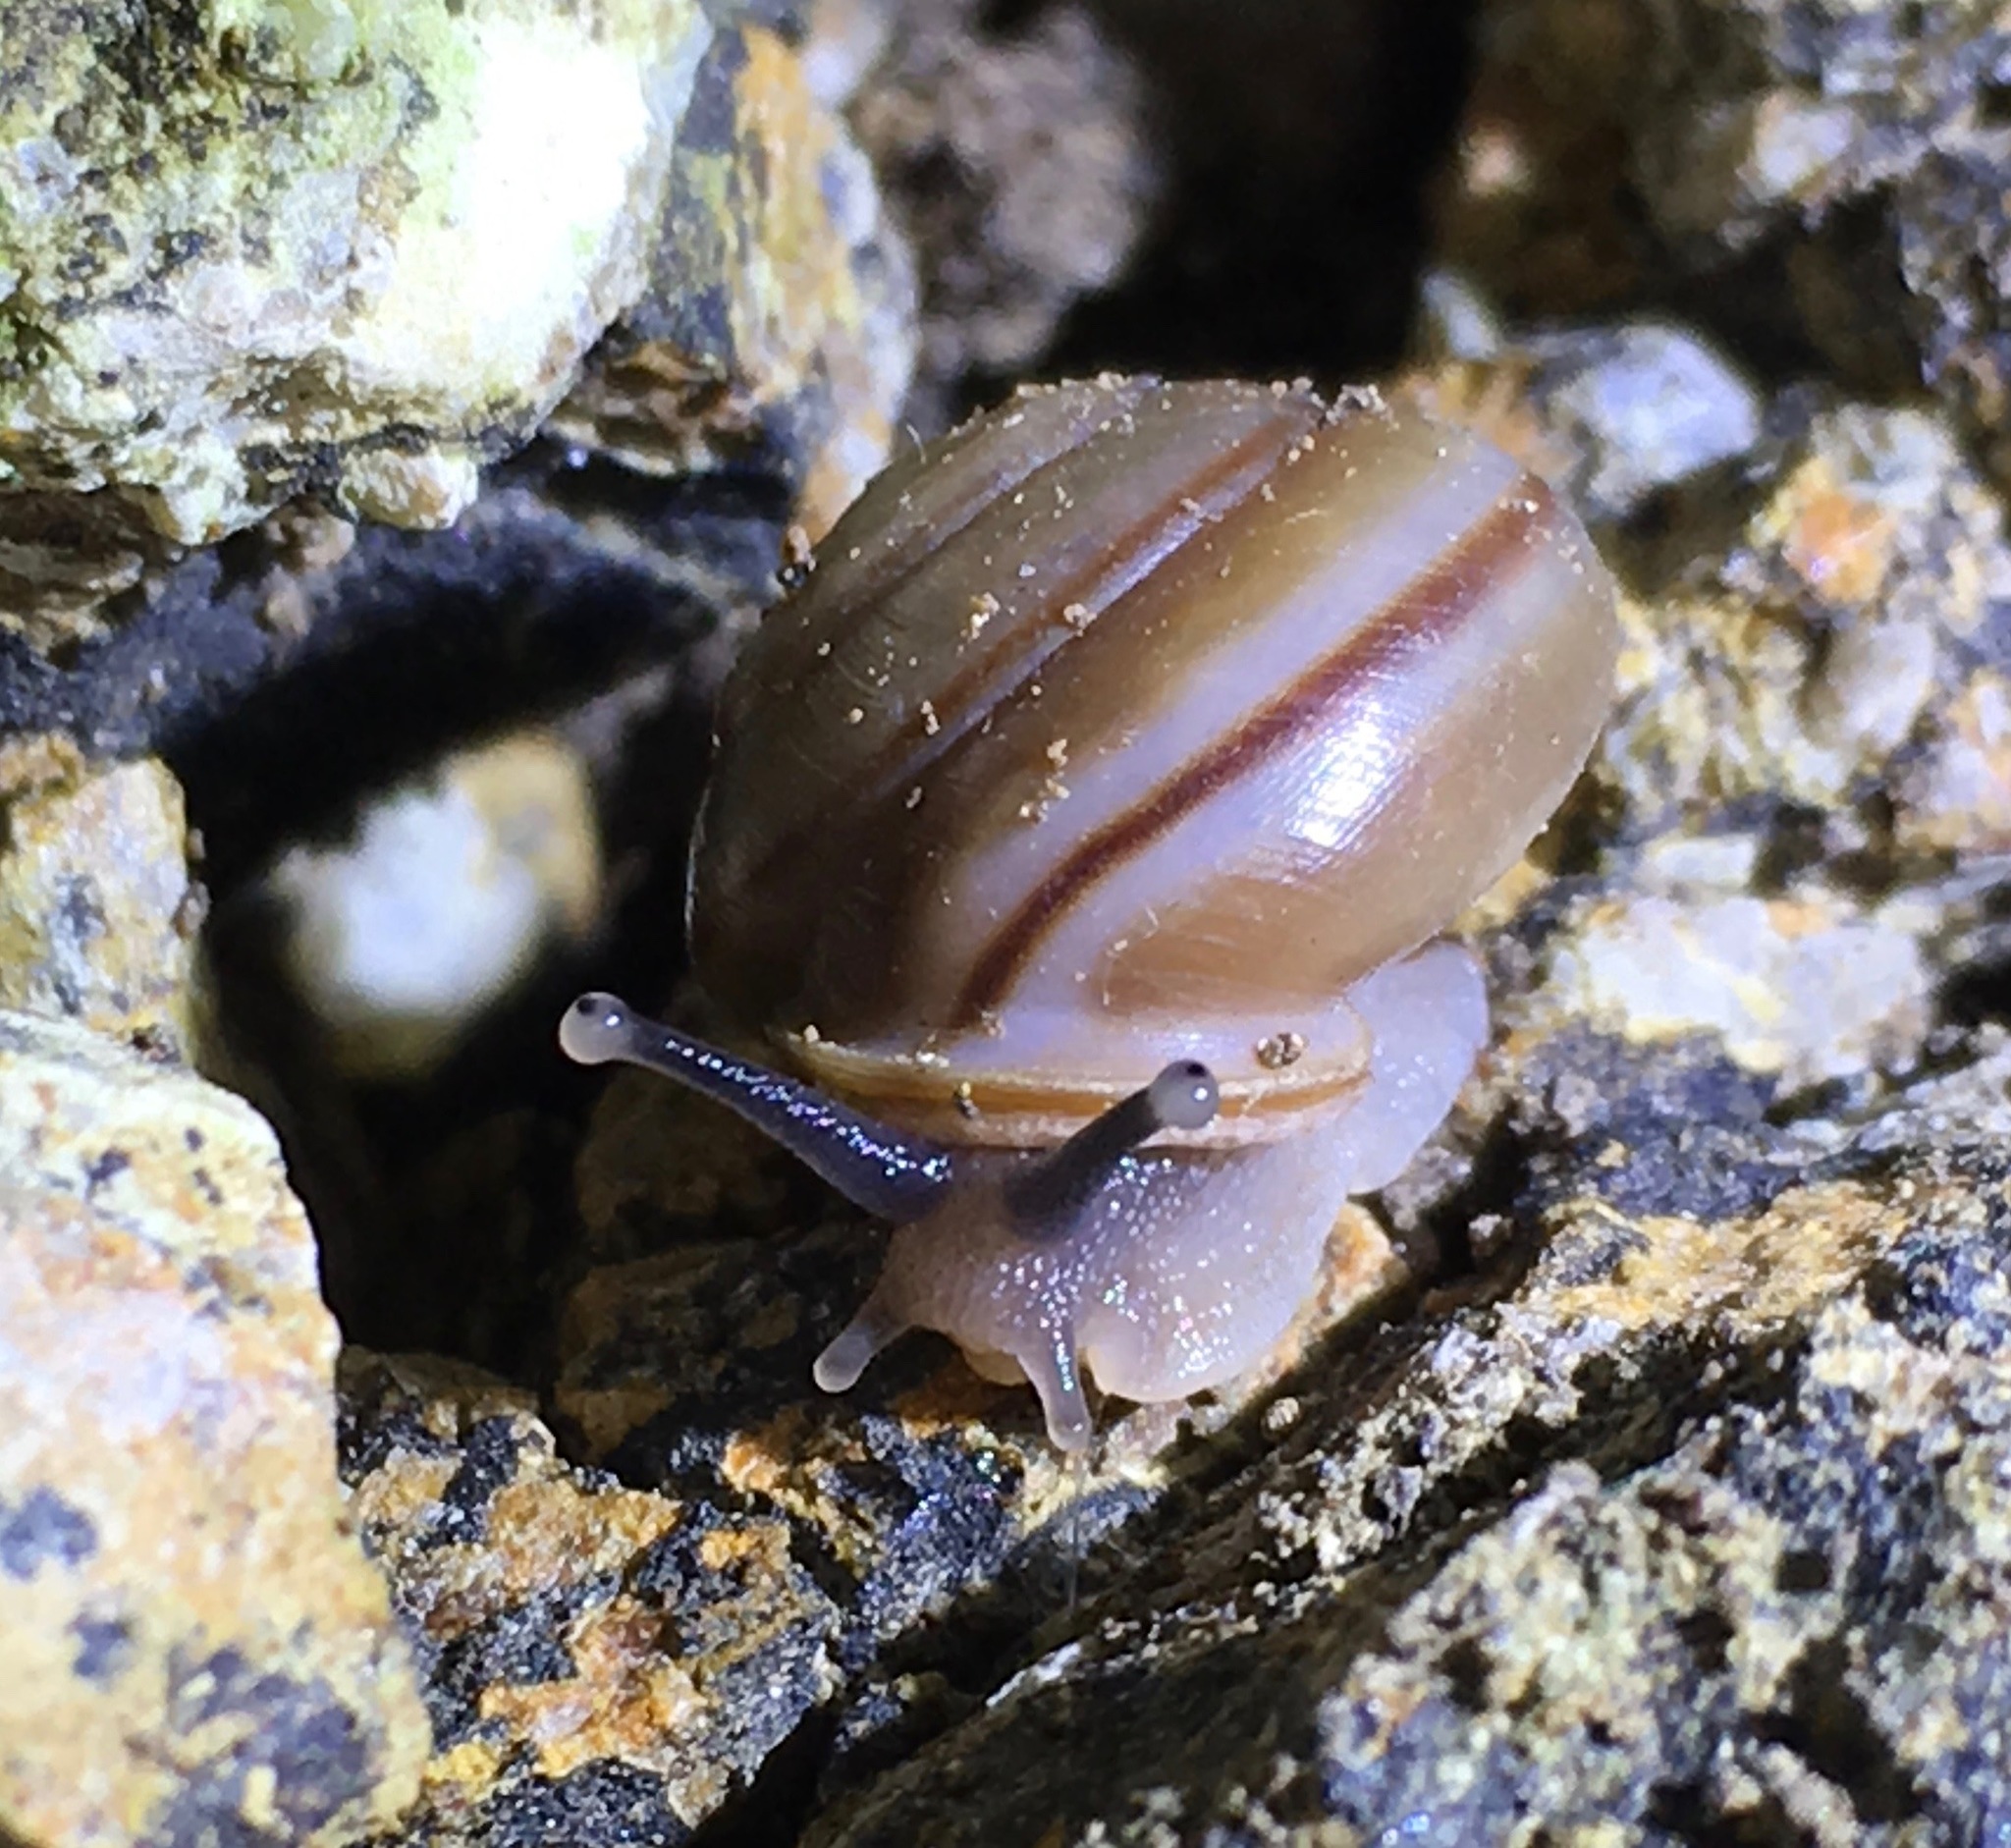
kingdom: Animalia
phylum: Mollusca
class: Gastropoda
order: Stylommatophora
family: Xanthonychidae
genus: Micrarionta
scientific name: Micrarionta facta
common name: Concentrated snail
